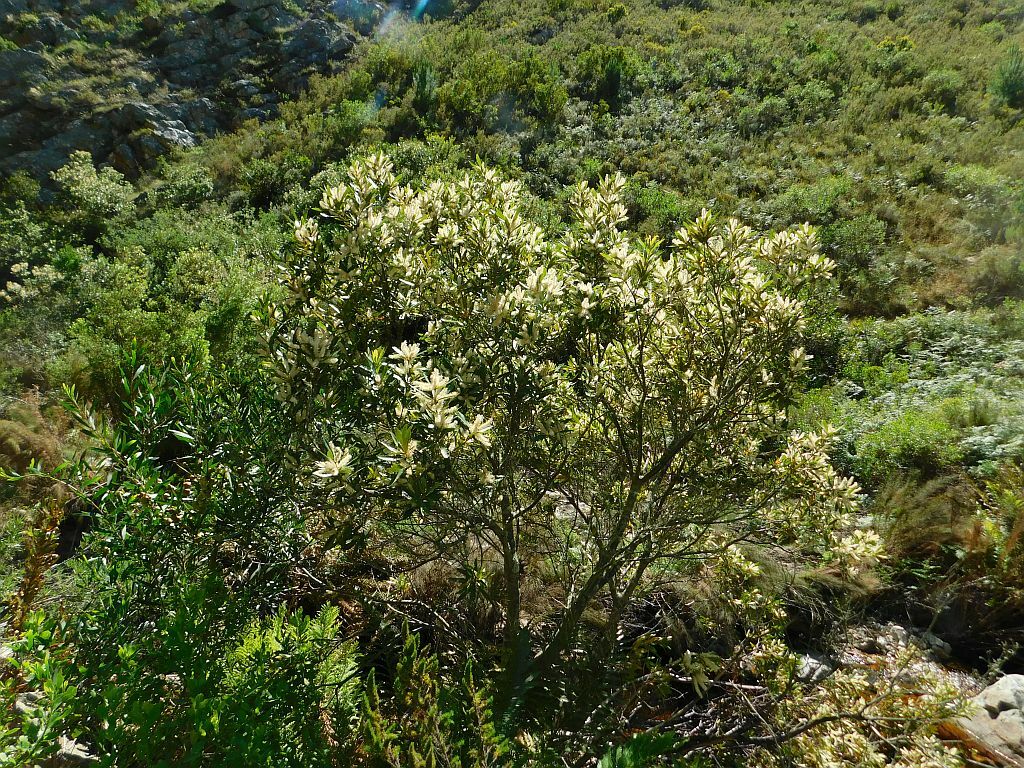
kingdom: Plantae
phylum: Tracheophyta
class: Magnoliopsida
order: Proteales
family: Proteaceae
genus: Brabejum
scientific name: Brabejum stellatifolium
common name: Wild almond
